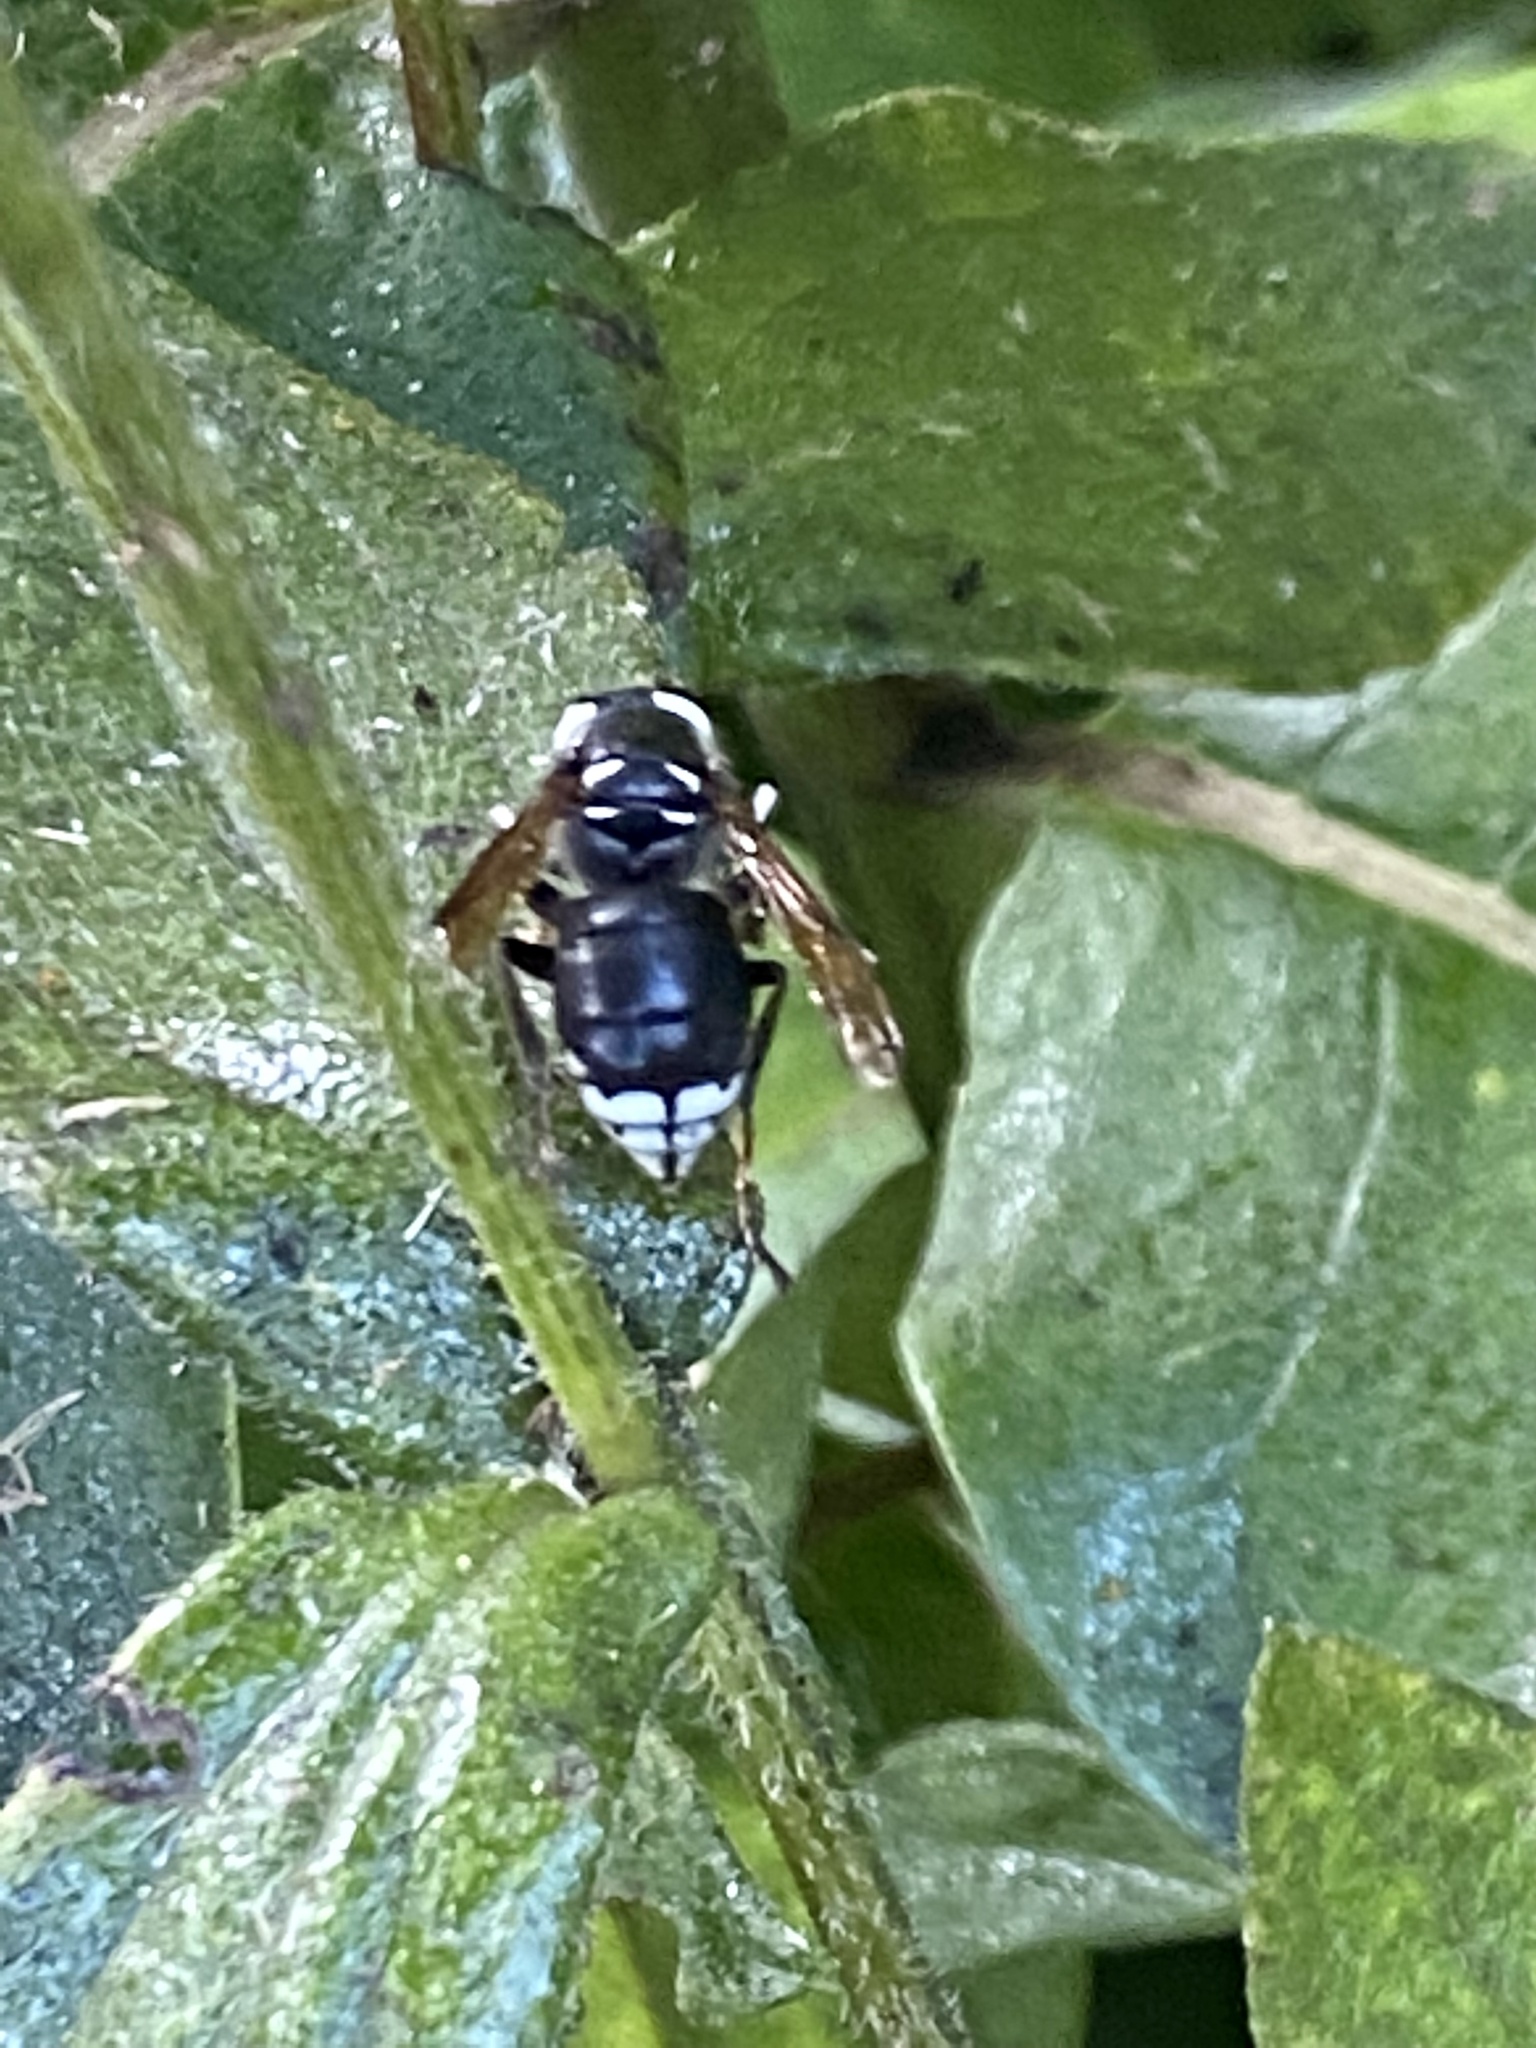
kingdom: Animalia
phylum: Arthropoda
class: Insecta
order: Hymenoptera
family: Vespidae
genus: Dolichovespula
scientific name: Dolichovespula maculata
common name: Bald-faced hornet
